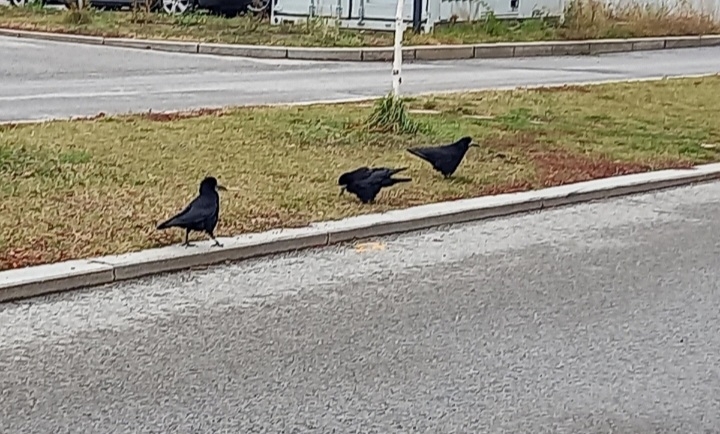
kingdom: Animalia
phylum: Chordata
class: Aves
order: Passeriformes
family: Corvidae
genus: Corvus
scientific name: Corvus frugilegus
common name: Rook
